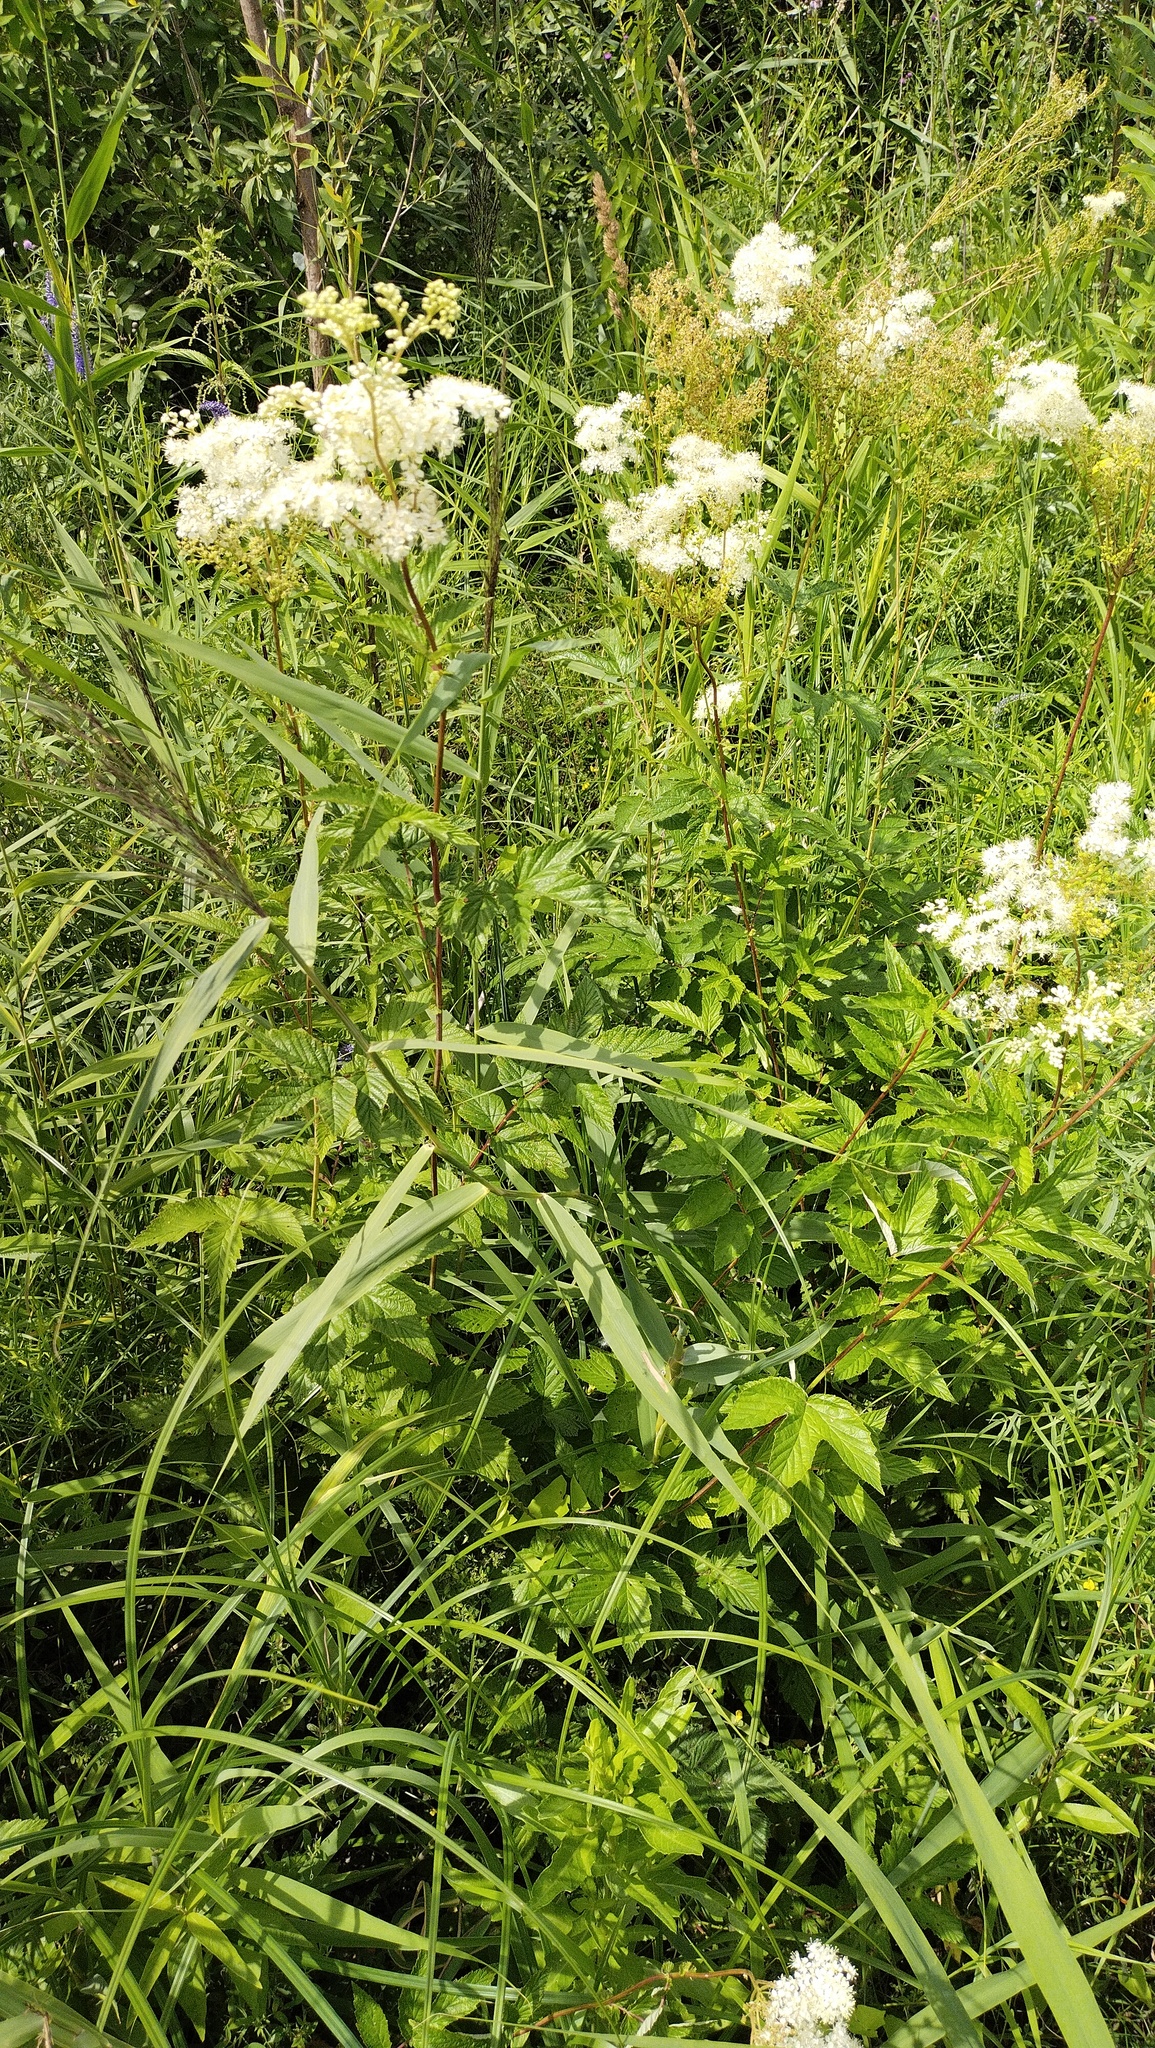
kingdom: Plantae
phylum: Tracheophyta
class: Magnoliopsida
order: Rosales
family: Rosaceae
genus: Filipendula
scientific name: Filipendula ulmaria
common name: Meadowsweet
